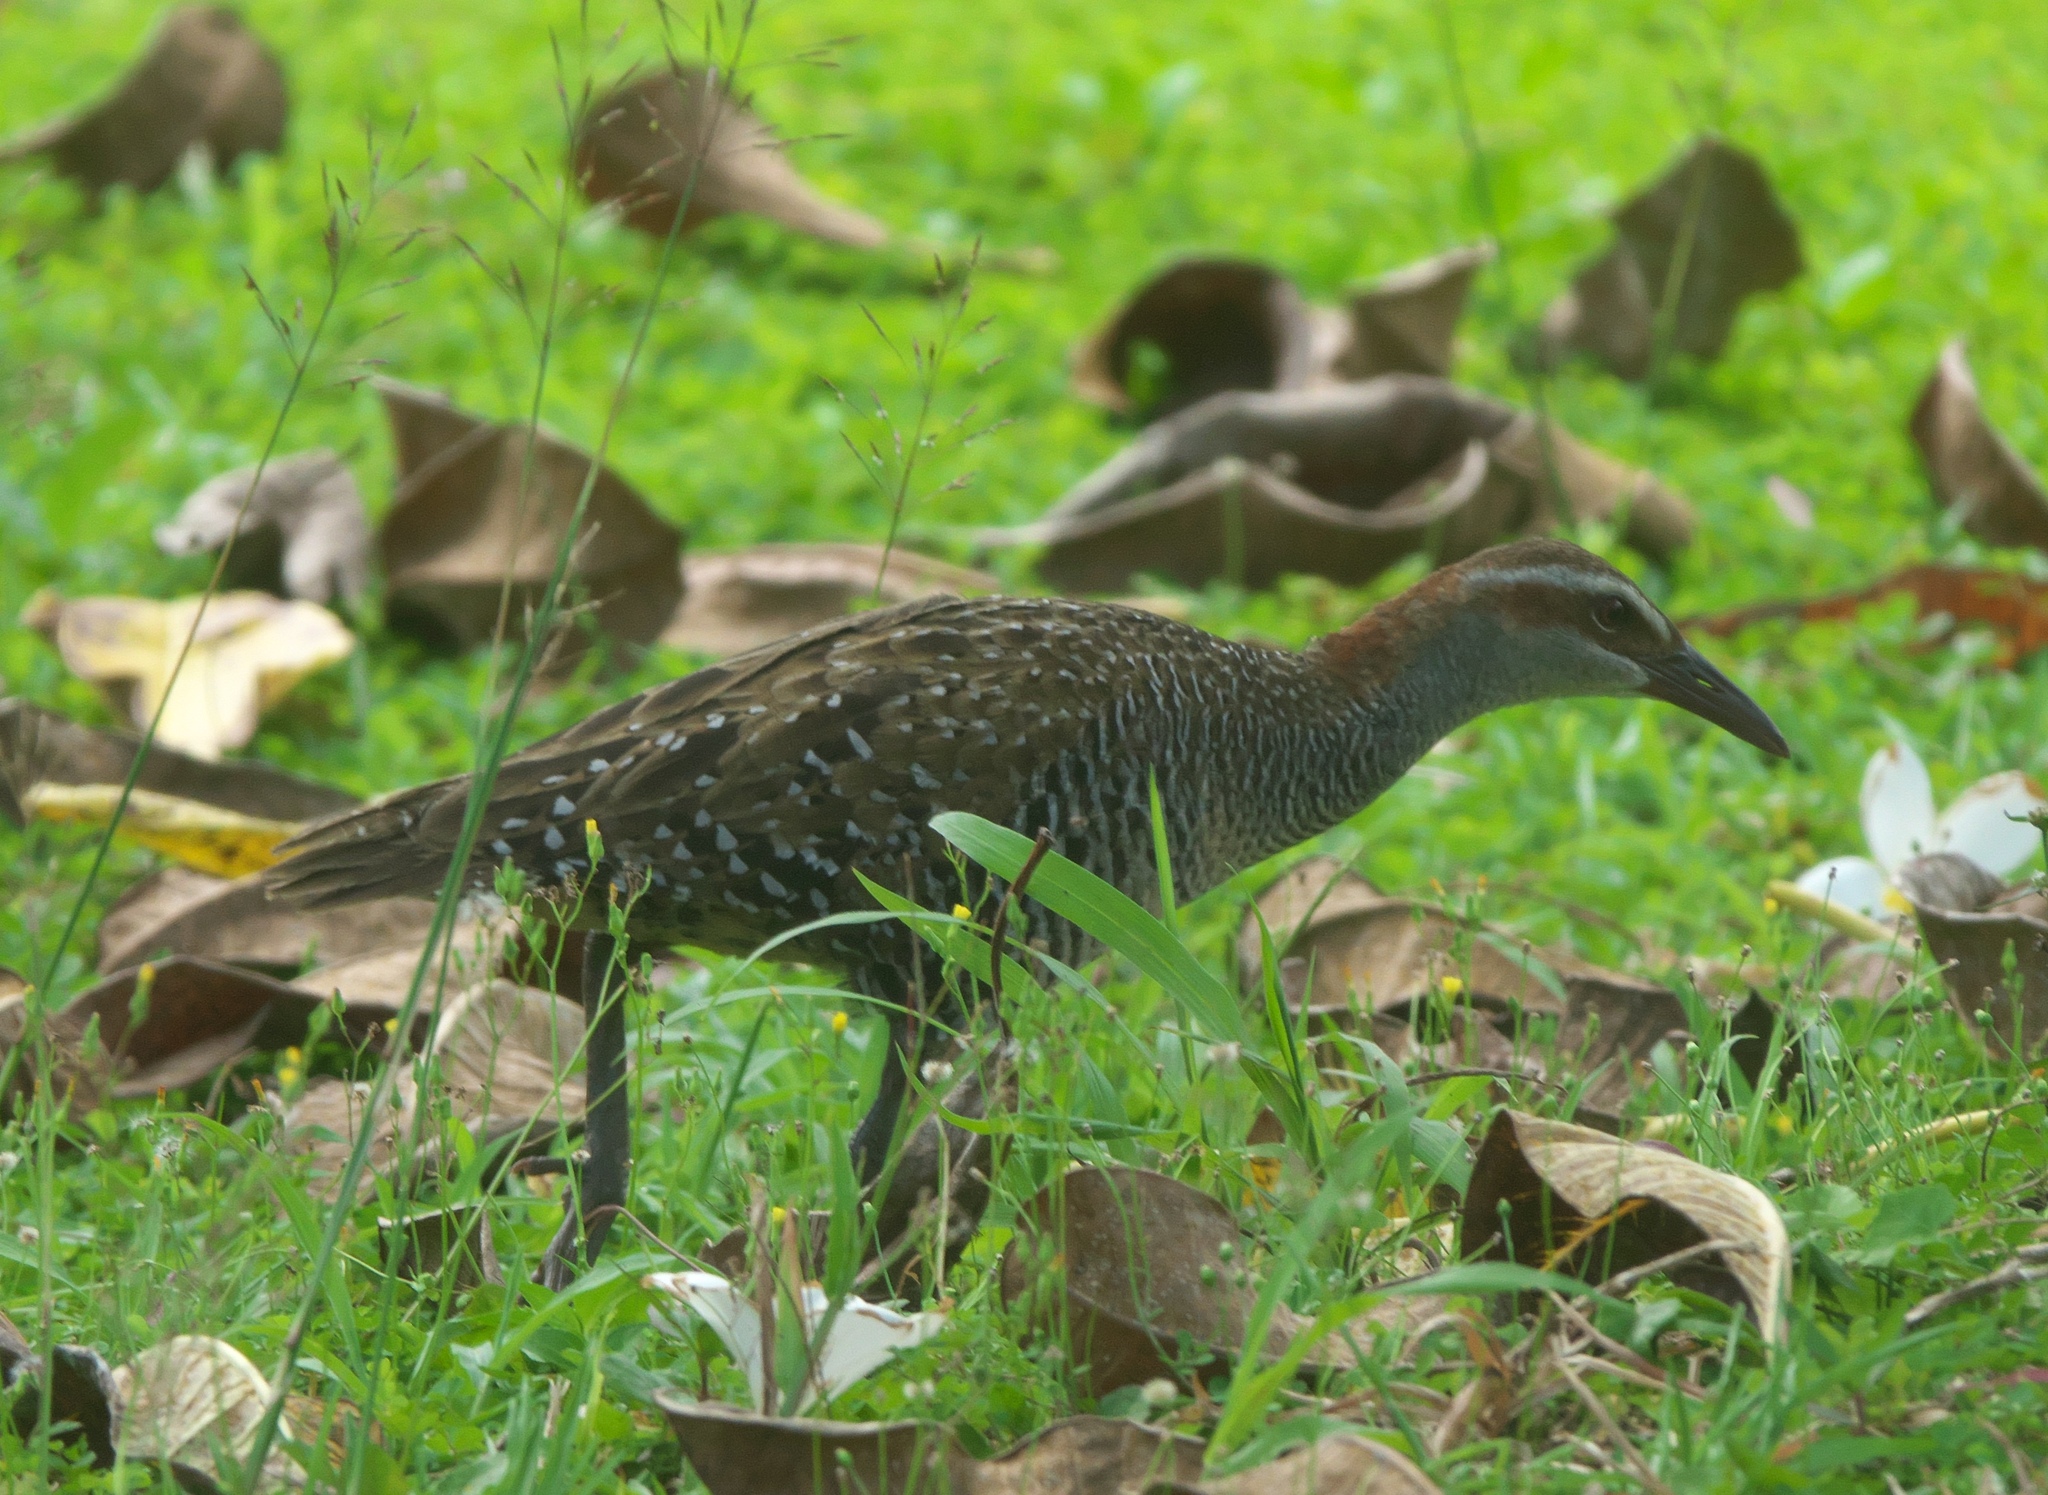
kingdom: Animalia
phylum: Chordata
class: Aves
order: Gruiformes
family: Rallidae
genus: Gallirallus
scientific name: Gallirallus philippensis
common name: Buff-banded rail
